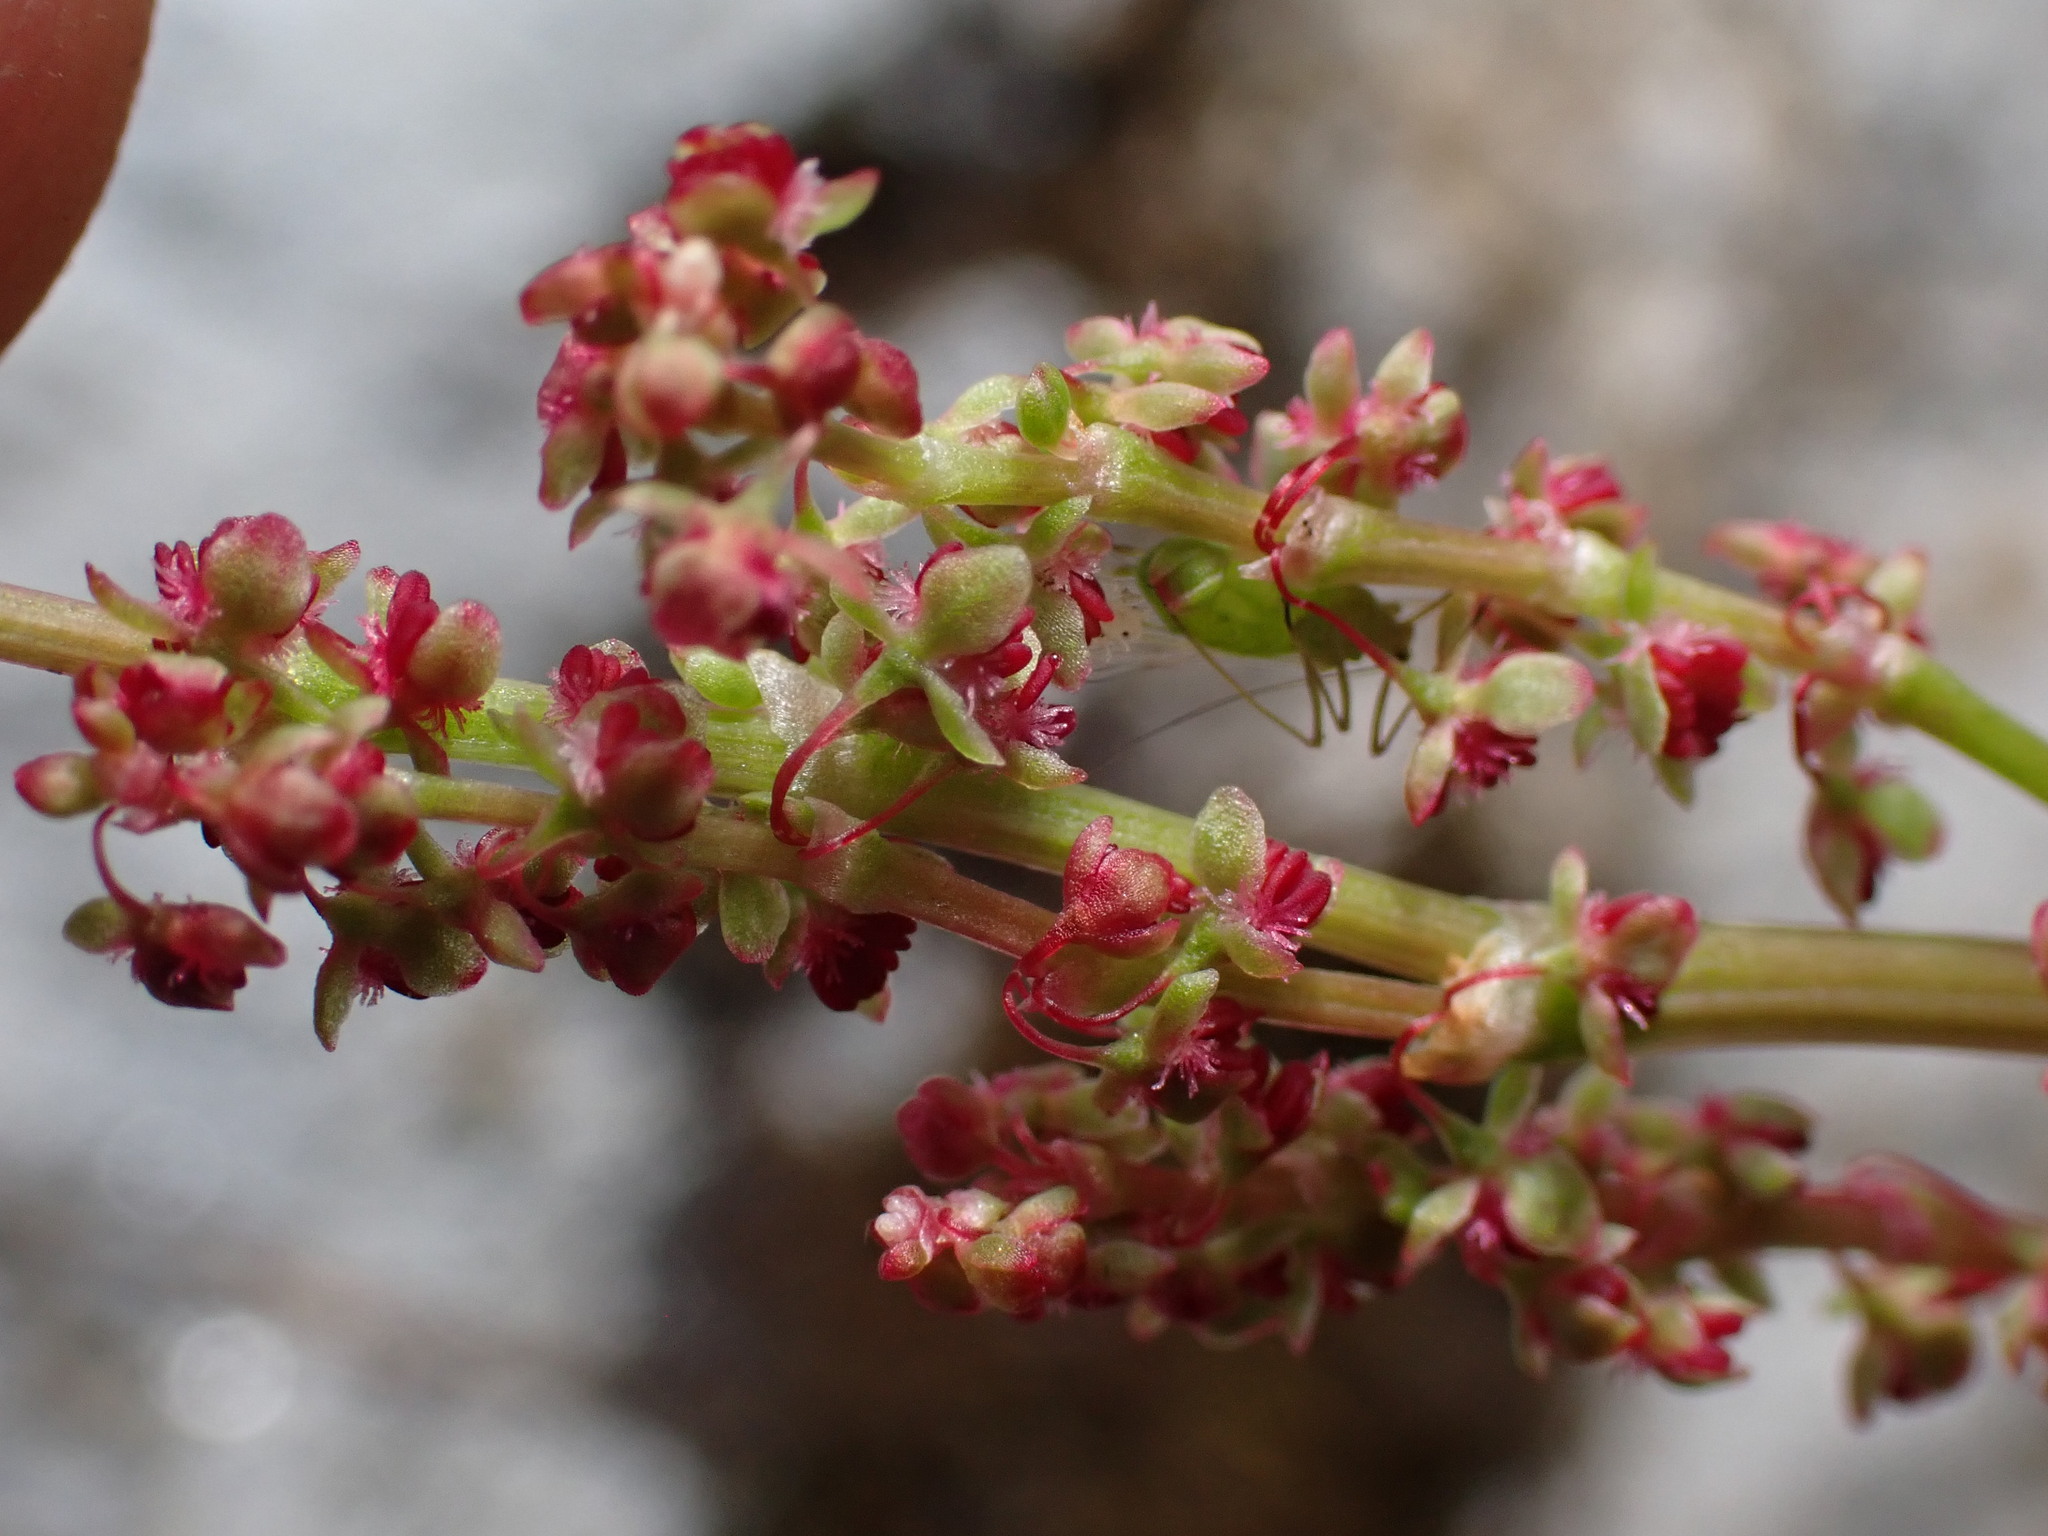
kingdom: Plantae
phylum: Tracheophyta
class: Magnoliopsida
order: Caryophyllales
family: Polygonaceae
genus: Oxyria
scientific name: Oxyria digyna
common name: Alpine mountain-sorrel
